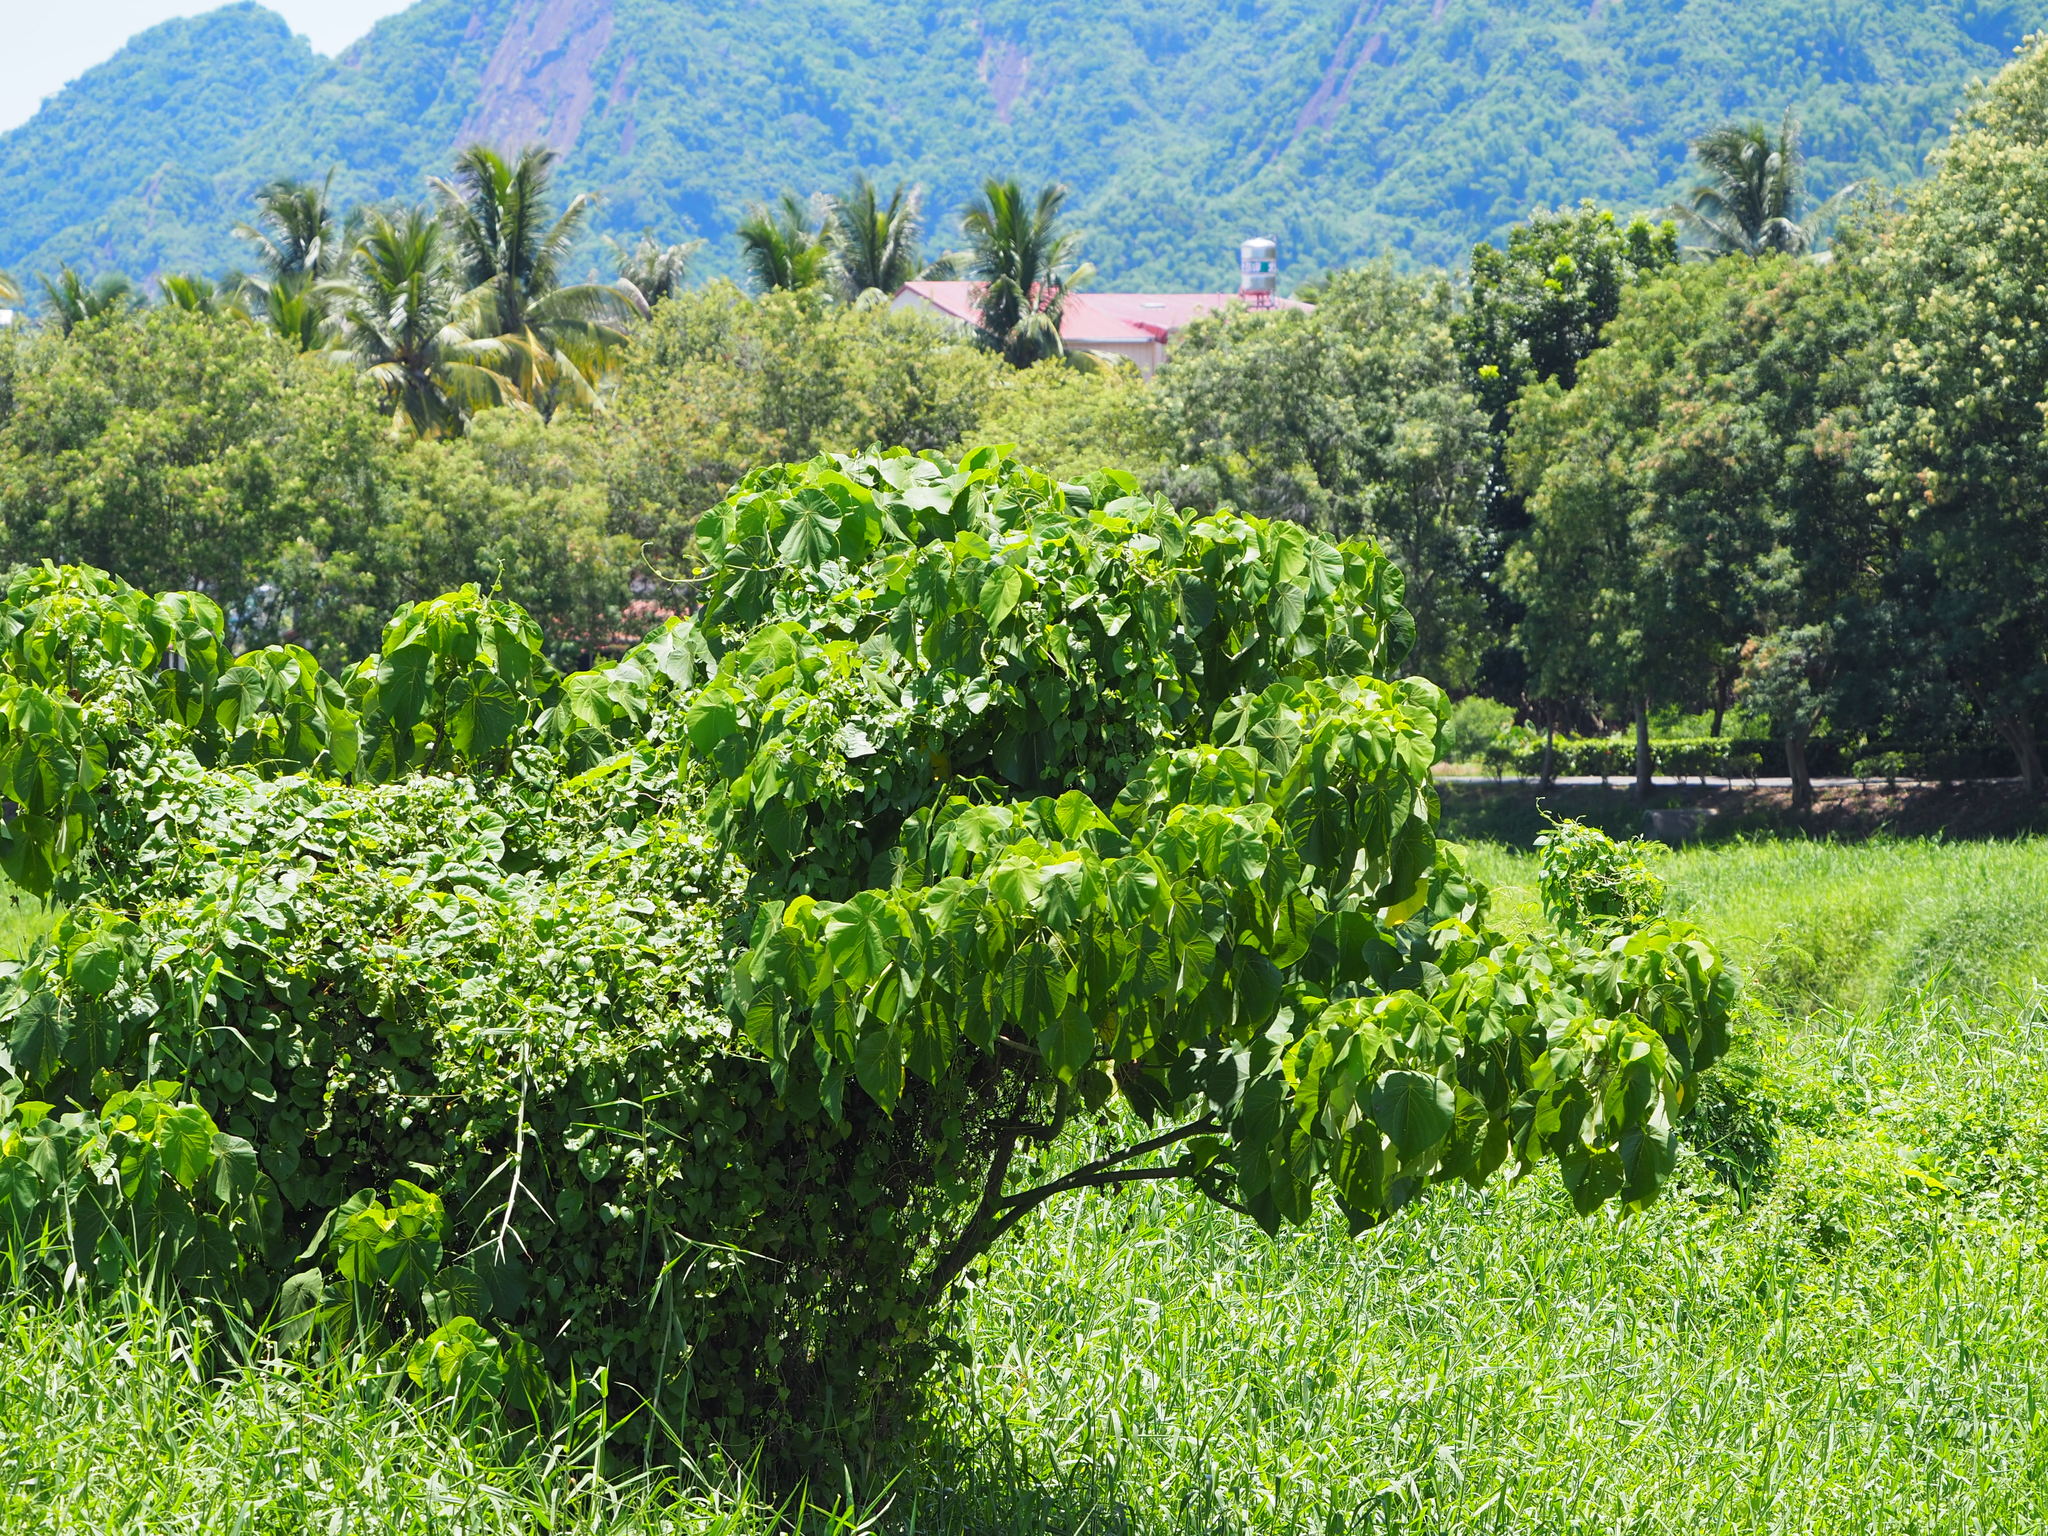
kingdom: Plantae
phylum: Tracheophyta
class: Magnoliopsida
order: Malpighiales
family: Euphorbiaceae
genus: Macaranga
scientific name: Macaranga tanarius
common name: Parasol leaf tree
